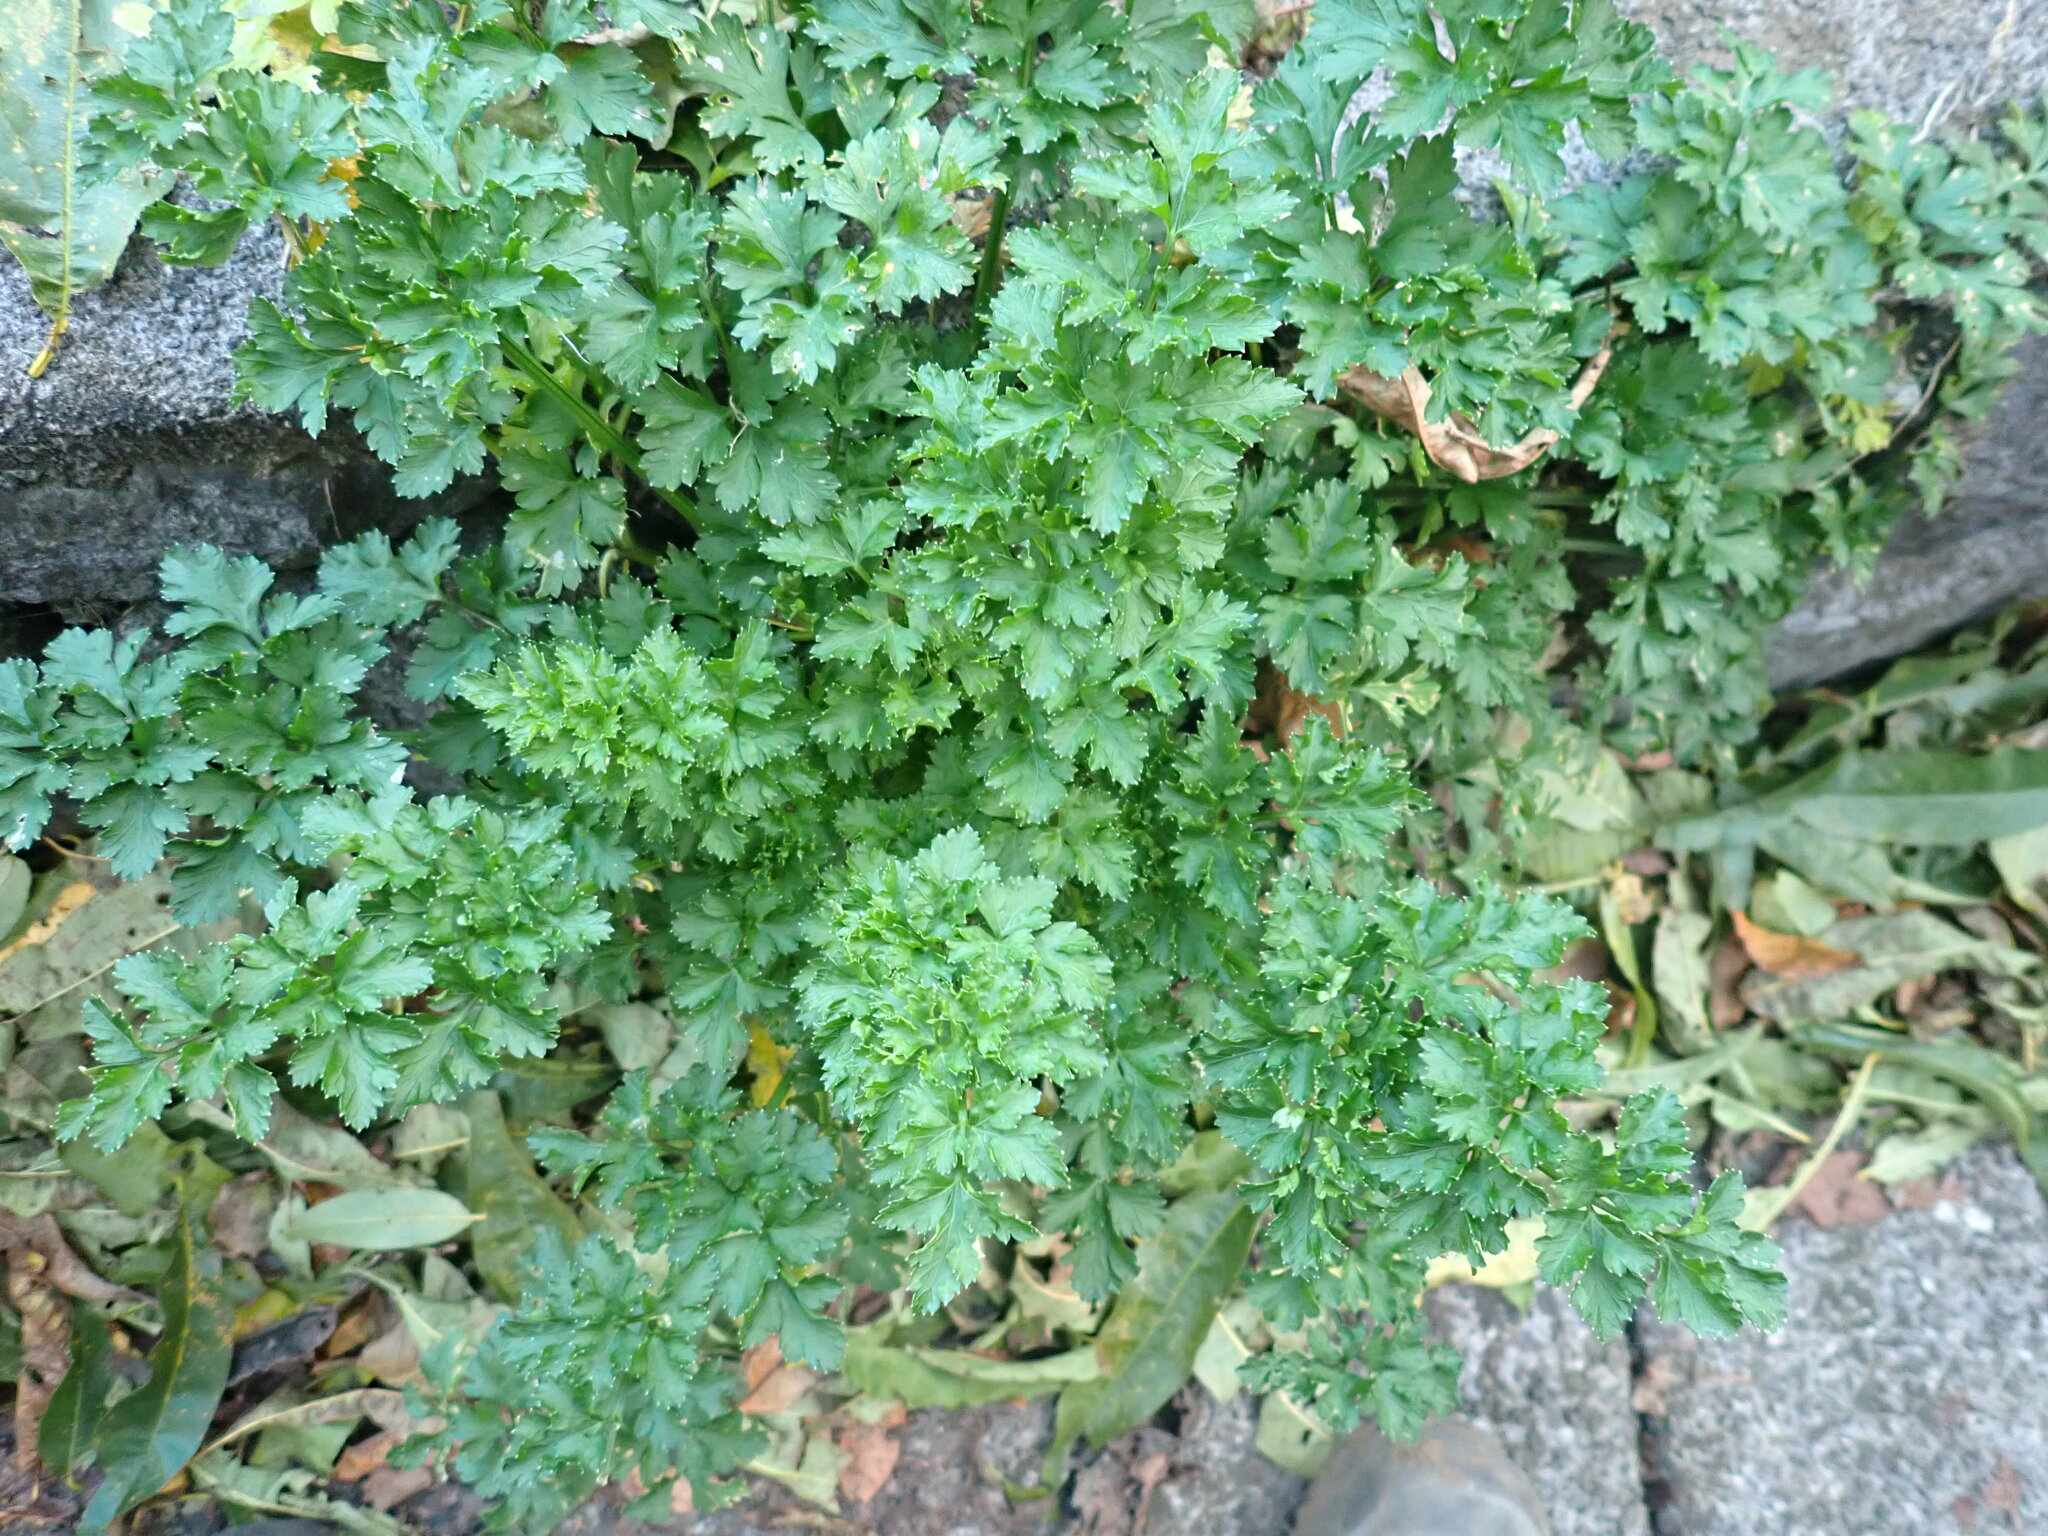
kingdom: Plantae
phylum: Tracheophyta
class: Magnoliopsida
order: Apiales
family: Apiaceae
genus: Petroselinum
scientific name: Petroselinum crispum
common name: Parsley
